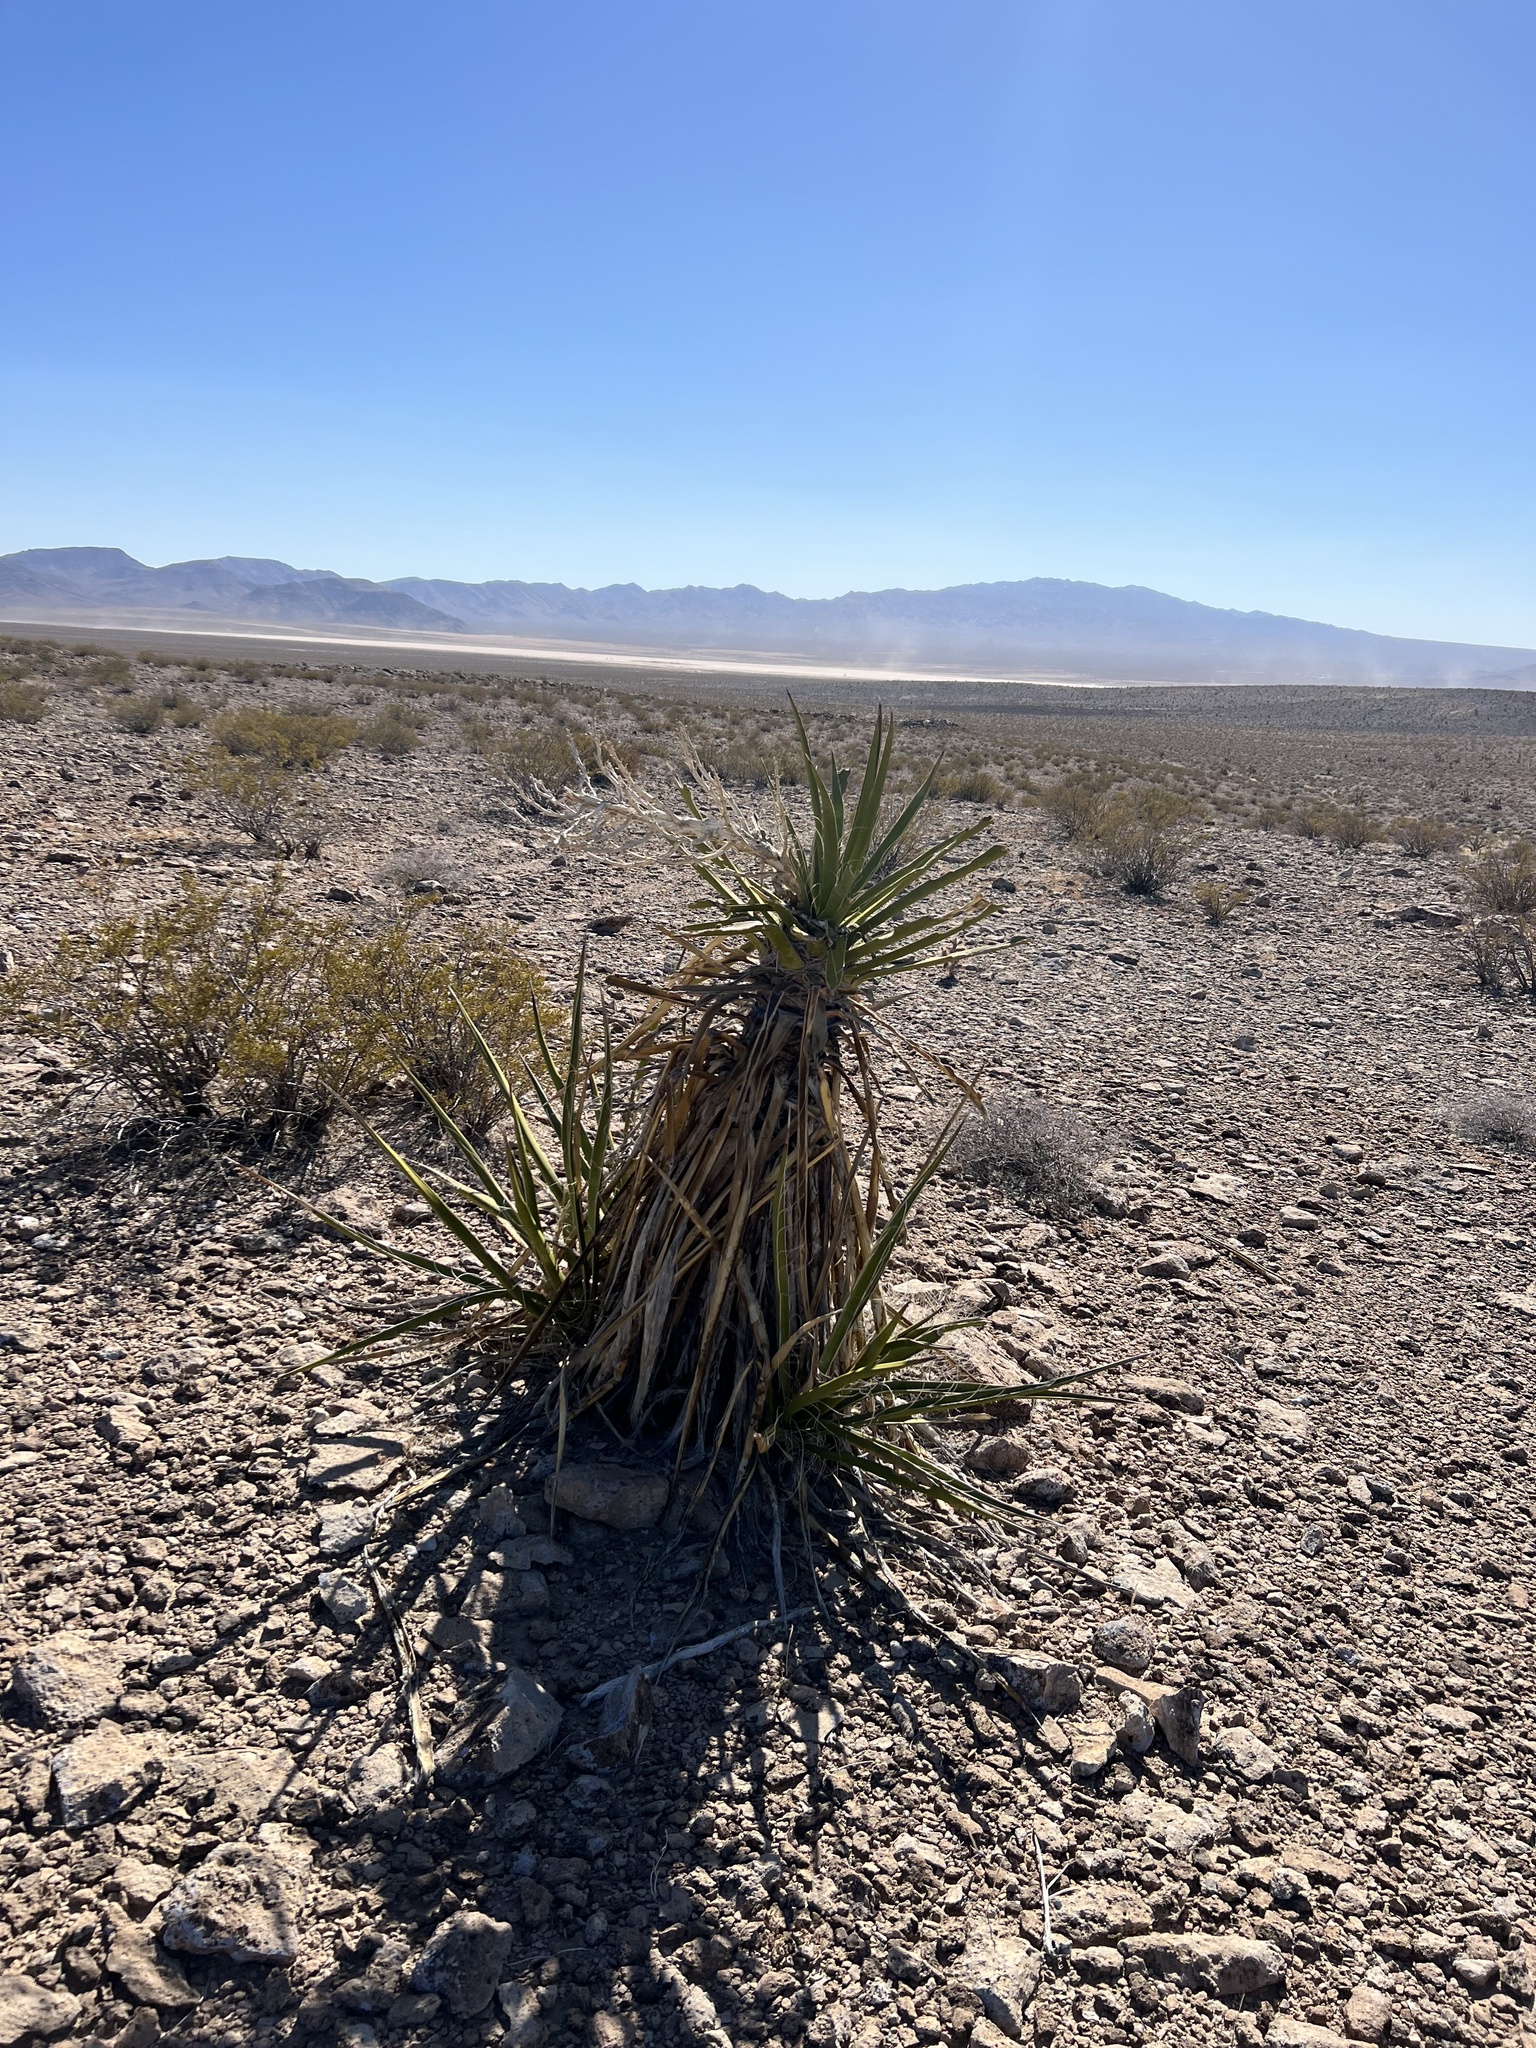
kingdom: Plantae
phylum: Tracheophyta
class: Liliopsida
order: Asparagales
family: Asparagaceae
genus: Yucca
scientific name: Yucca schidigera
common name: Mojave yucca
